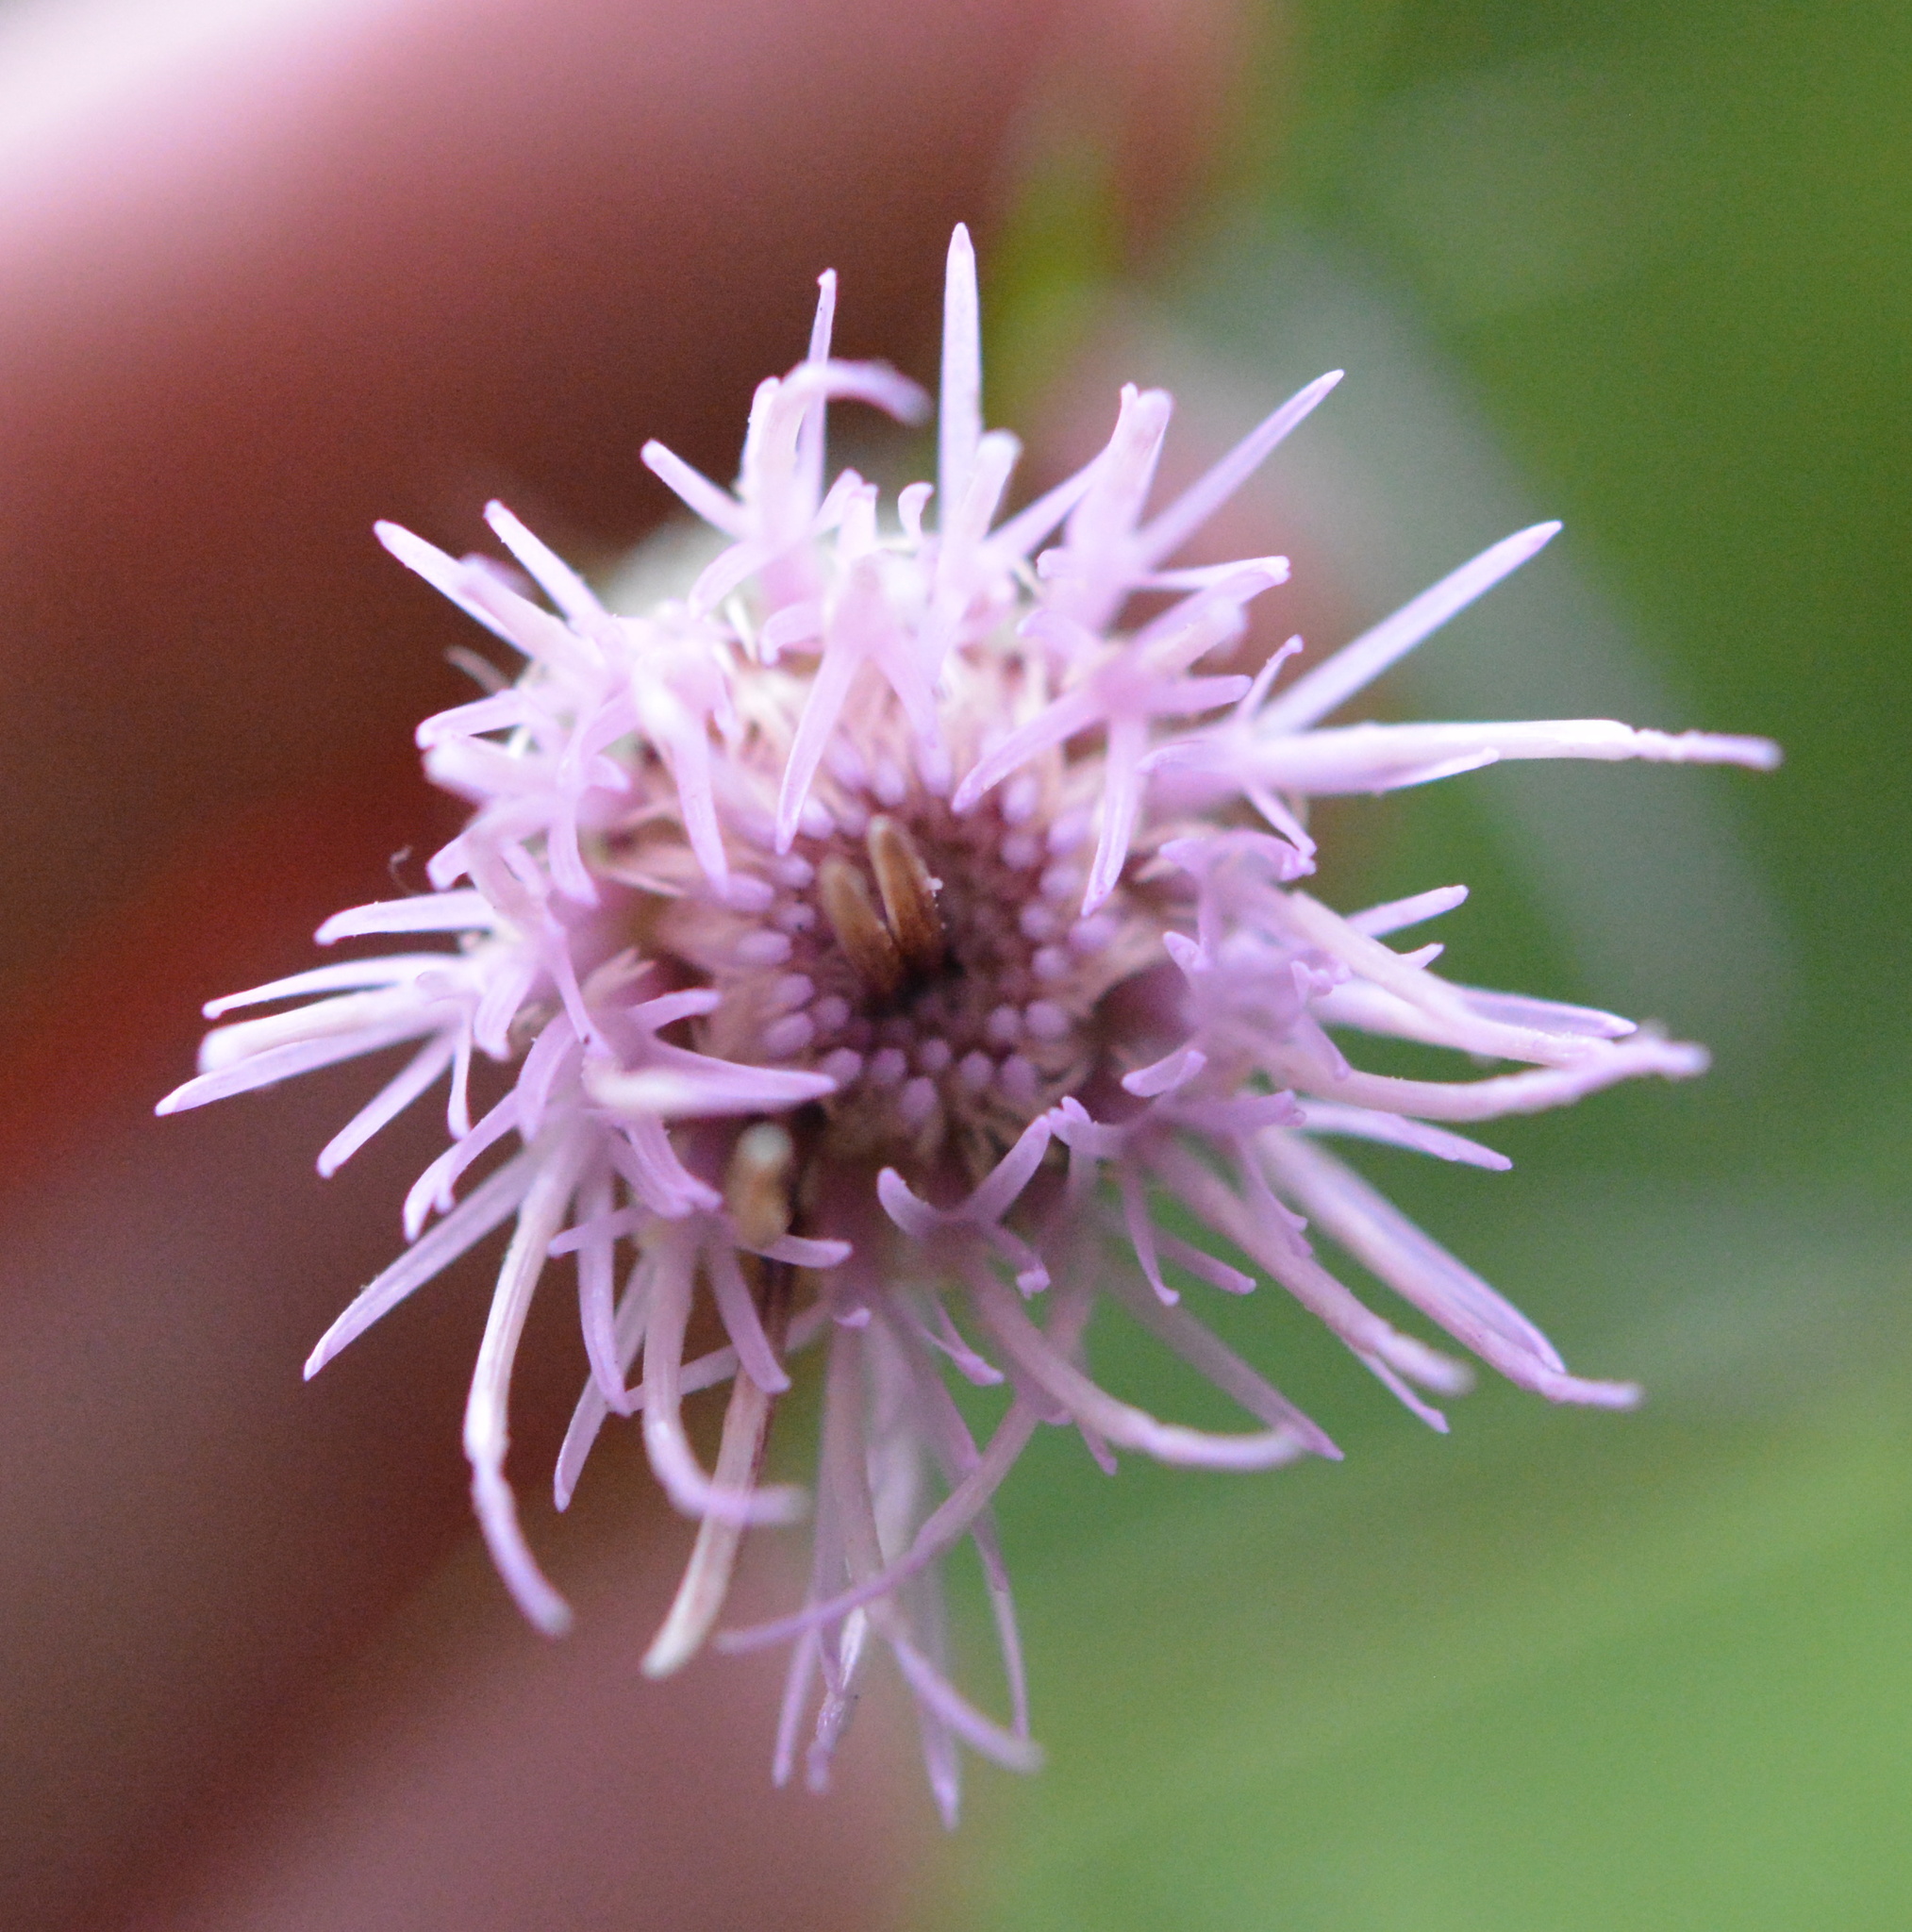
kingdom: Plantae
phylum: Tracheophyta
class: Magnoliopsida
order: Asterales
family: Asteraceae
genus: Cirsium
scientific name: Cirsium nuttalii
